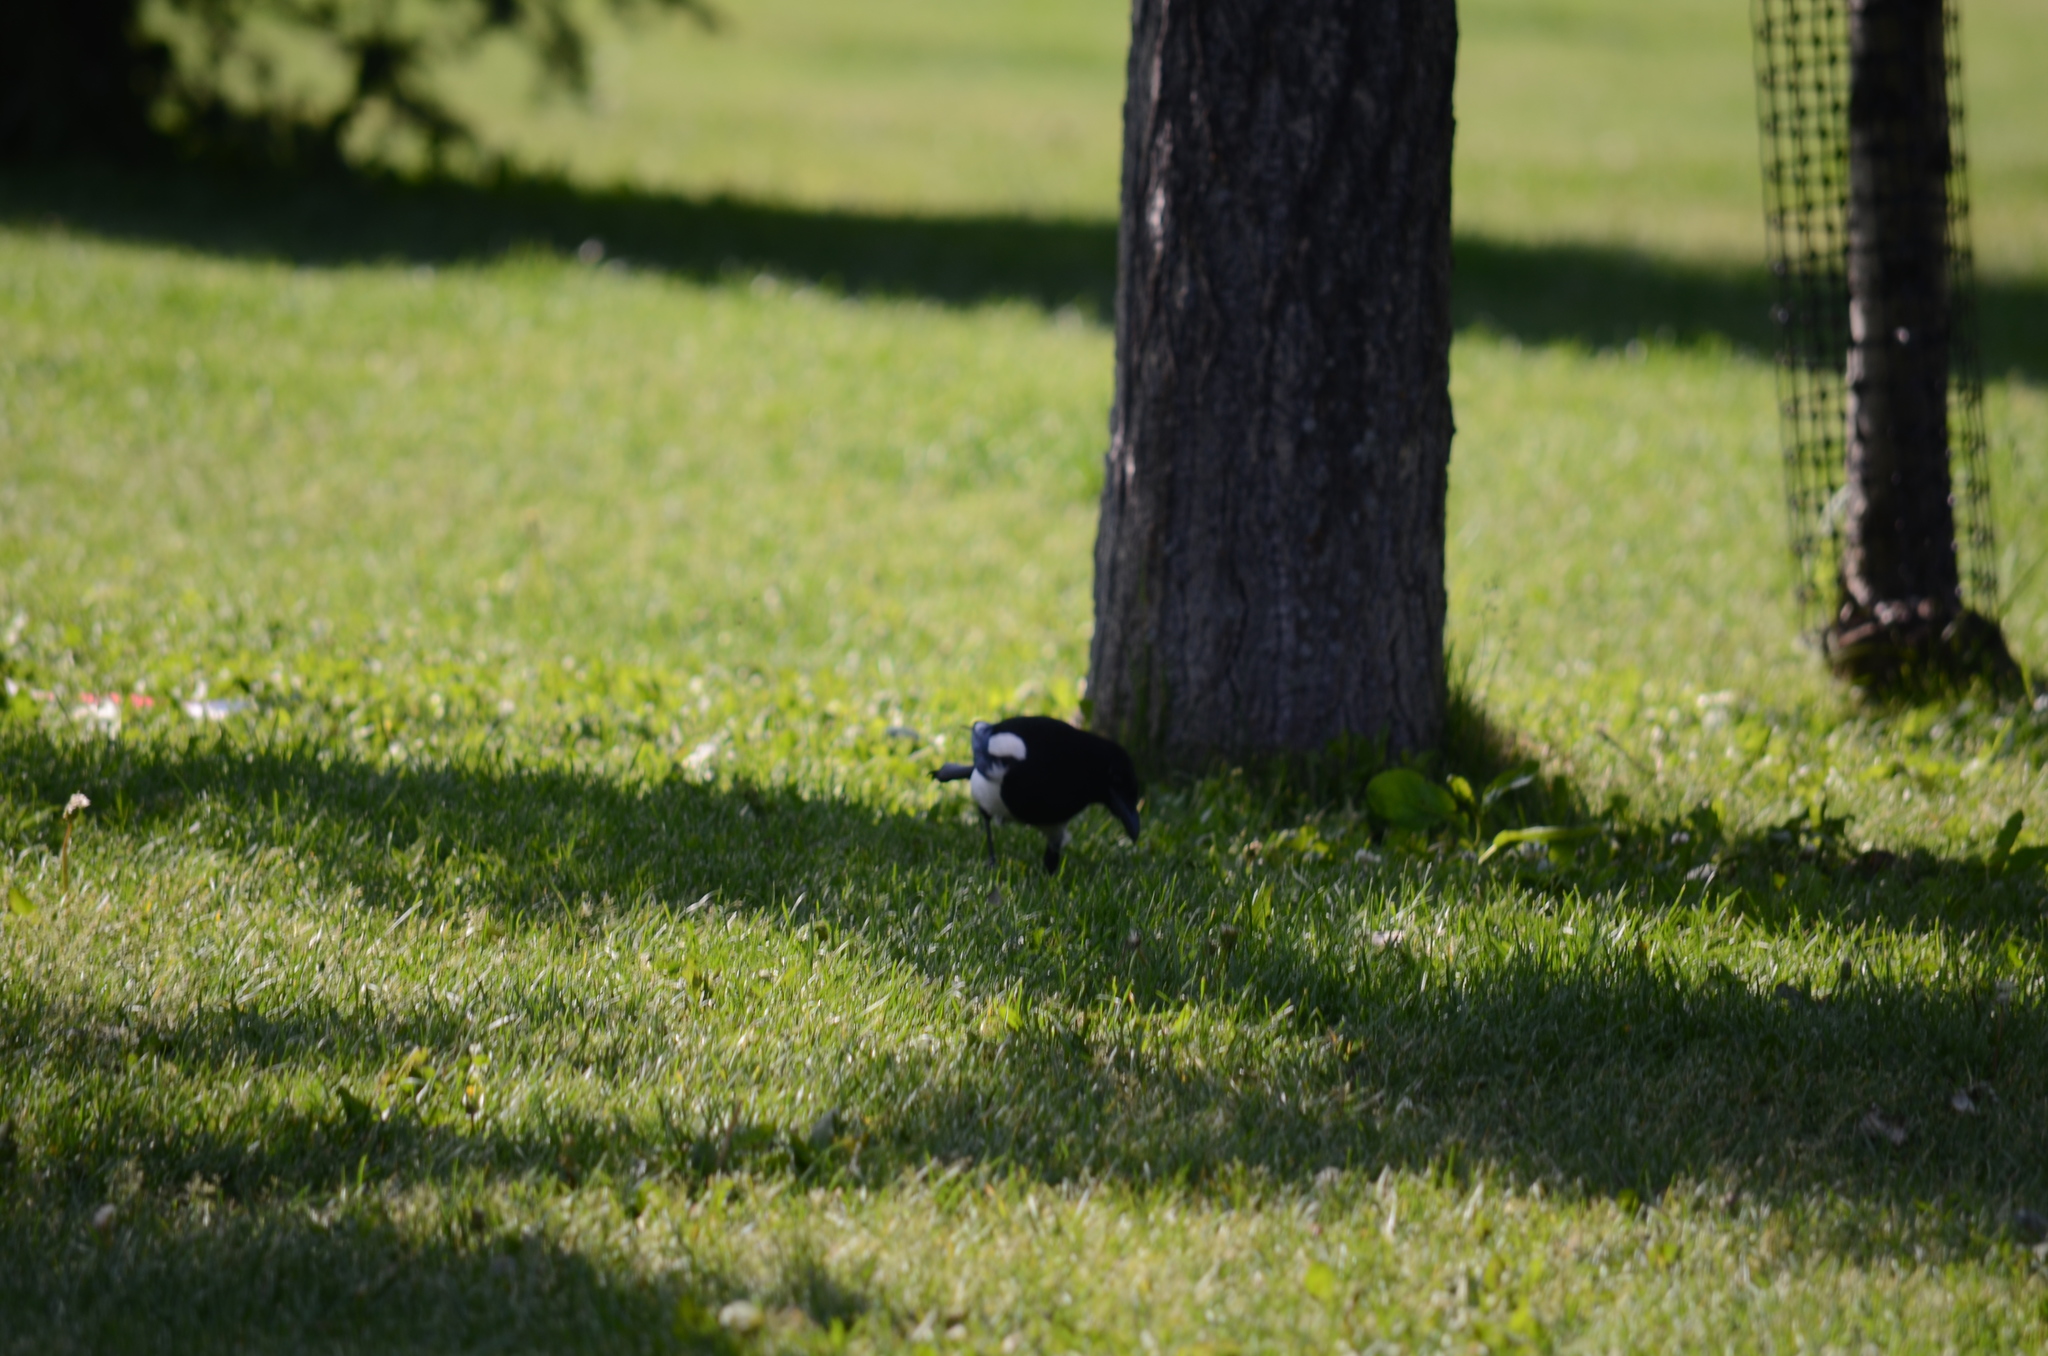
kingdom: Animalia
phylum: Chordata
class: Aves
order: Passeriformes
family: Corvidae
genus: Pica
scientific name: Pica hudsonia
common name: Black-billed magpie
